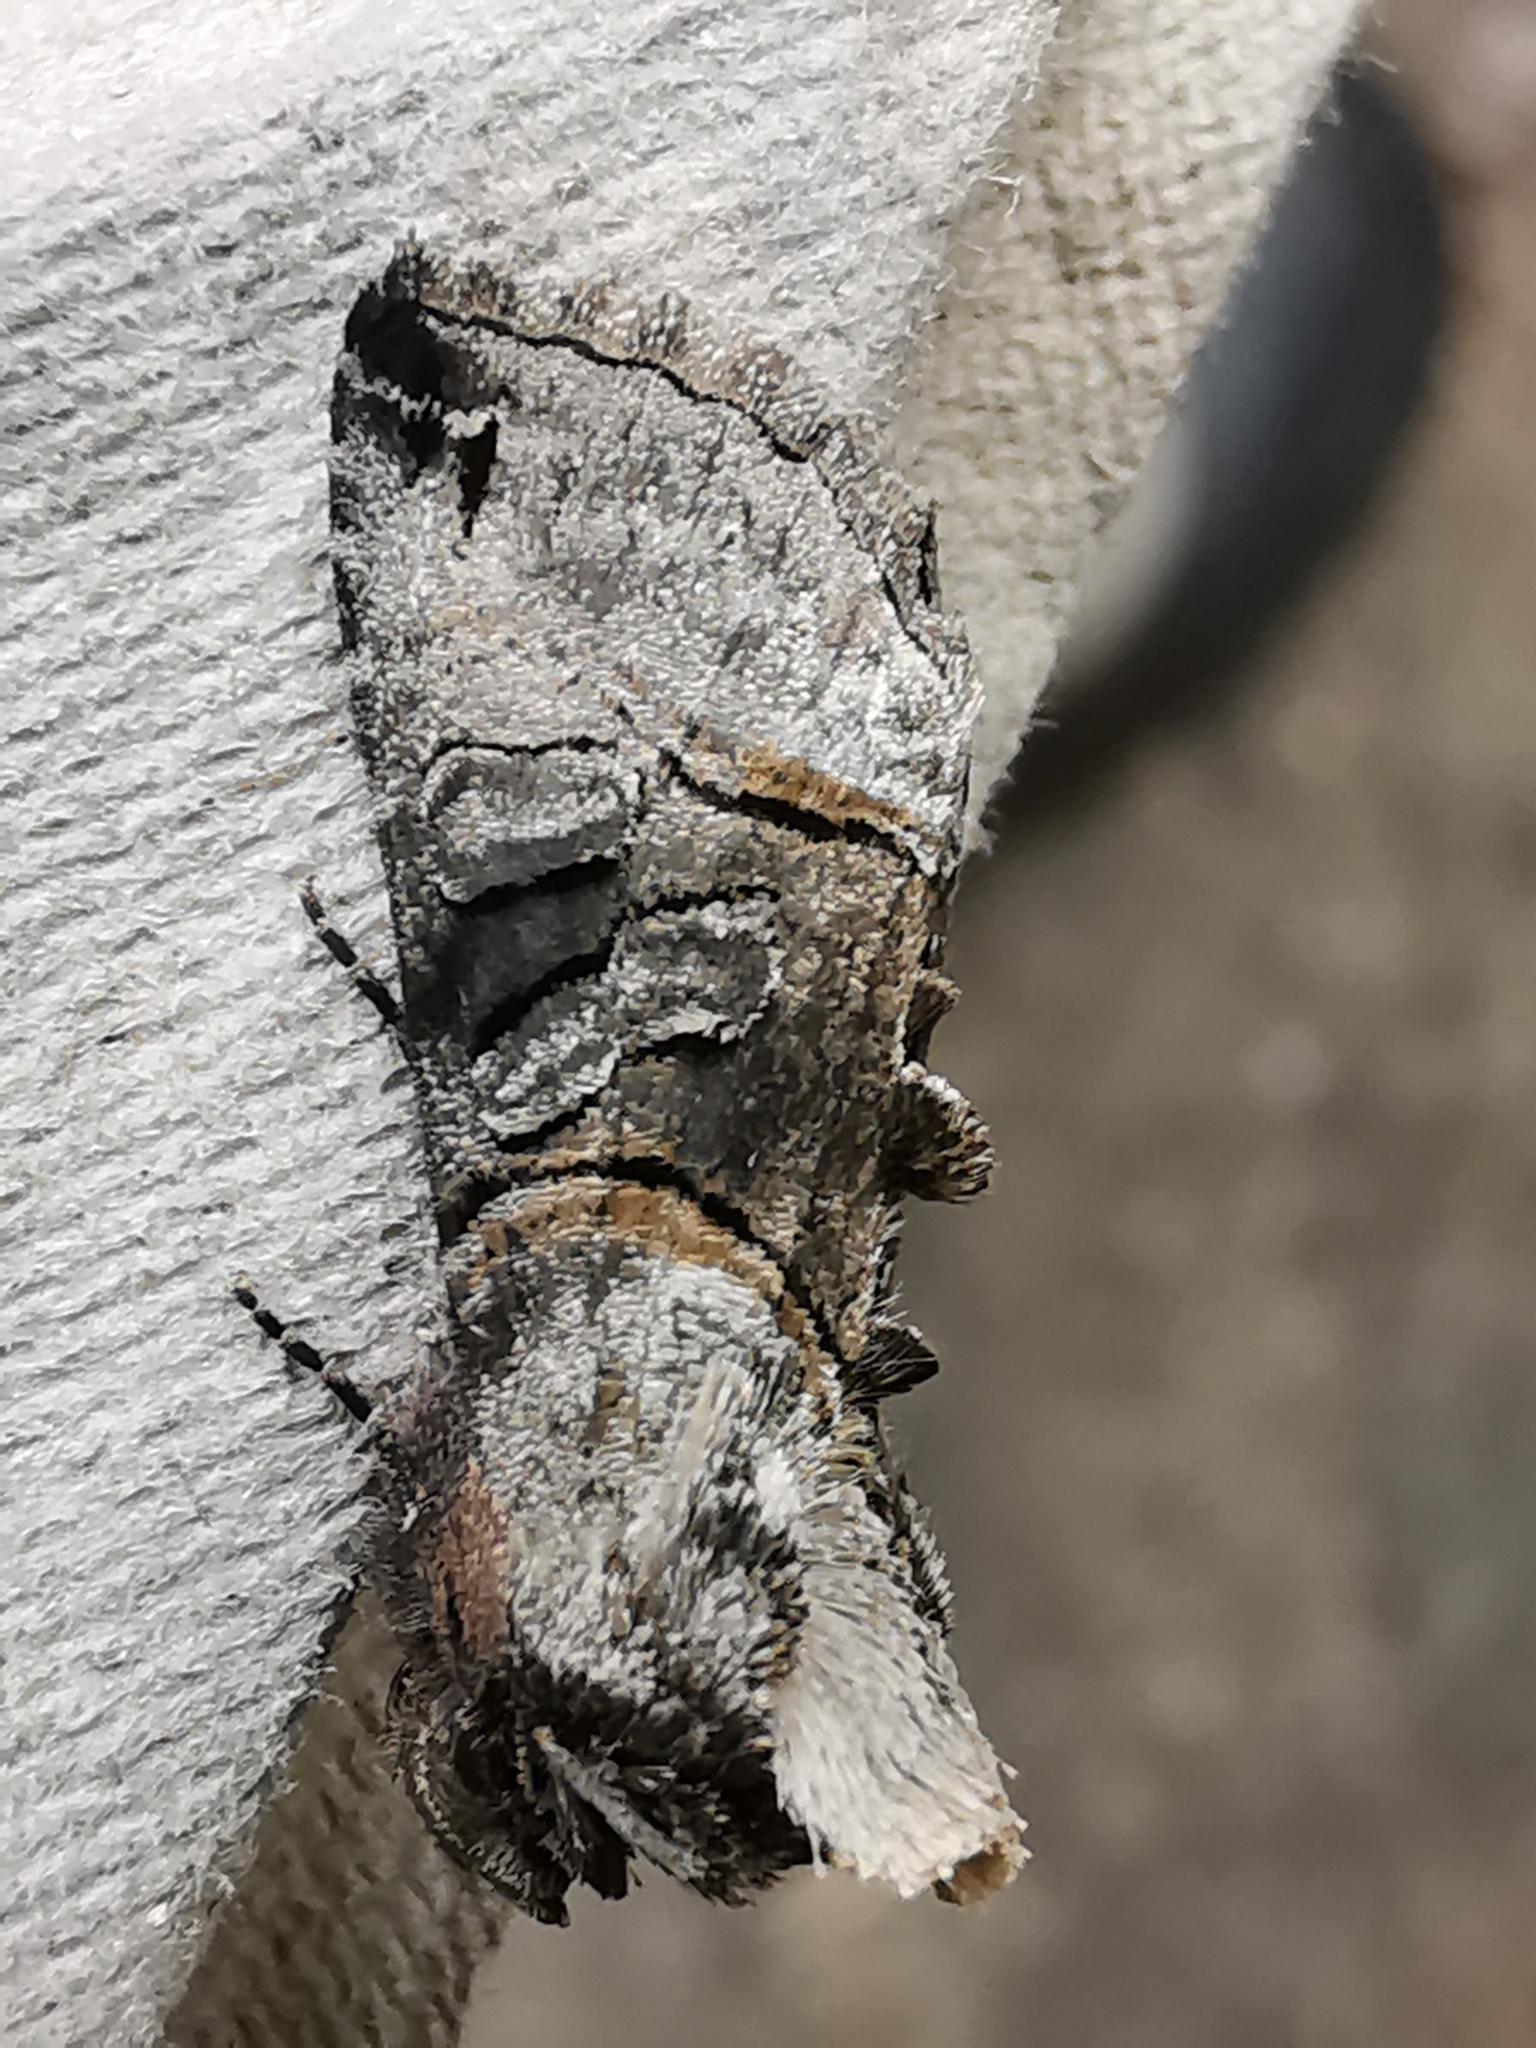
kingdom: Animalia
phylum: Arthropoda
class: Insecta
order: Lepidoptera
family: Noctuidae
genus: Abrostola
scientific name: Abrostola tripartita
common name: Spectacle
